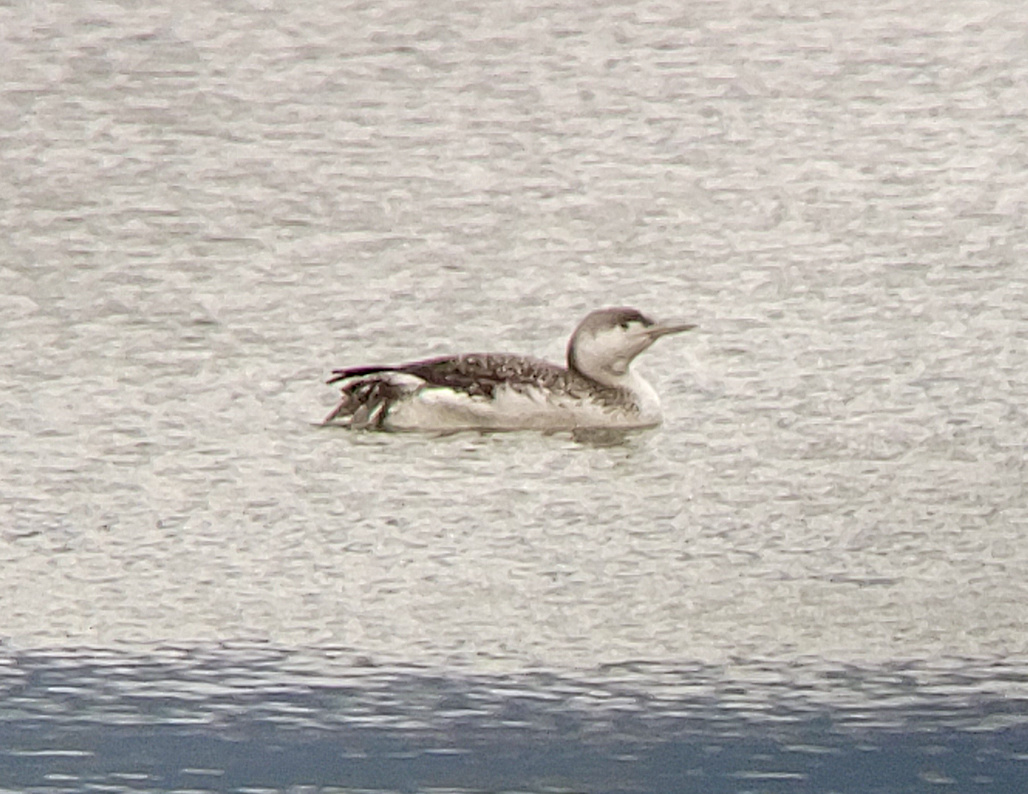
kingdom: Animalia
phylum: Chordata
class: Aves
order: Gaviiformes
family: Gaviidae
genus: Gavia
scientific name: Gavia stellata
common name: Red-throated loon
